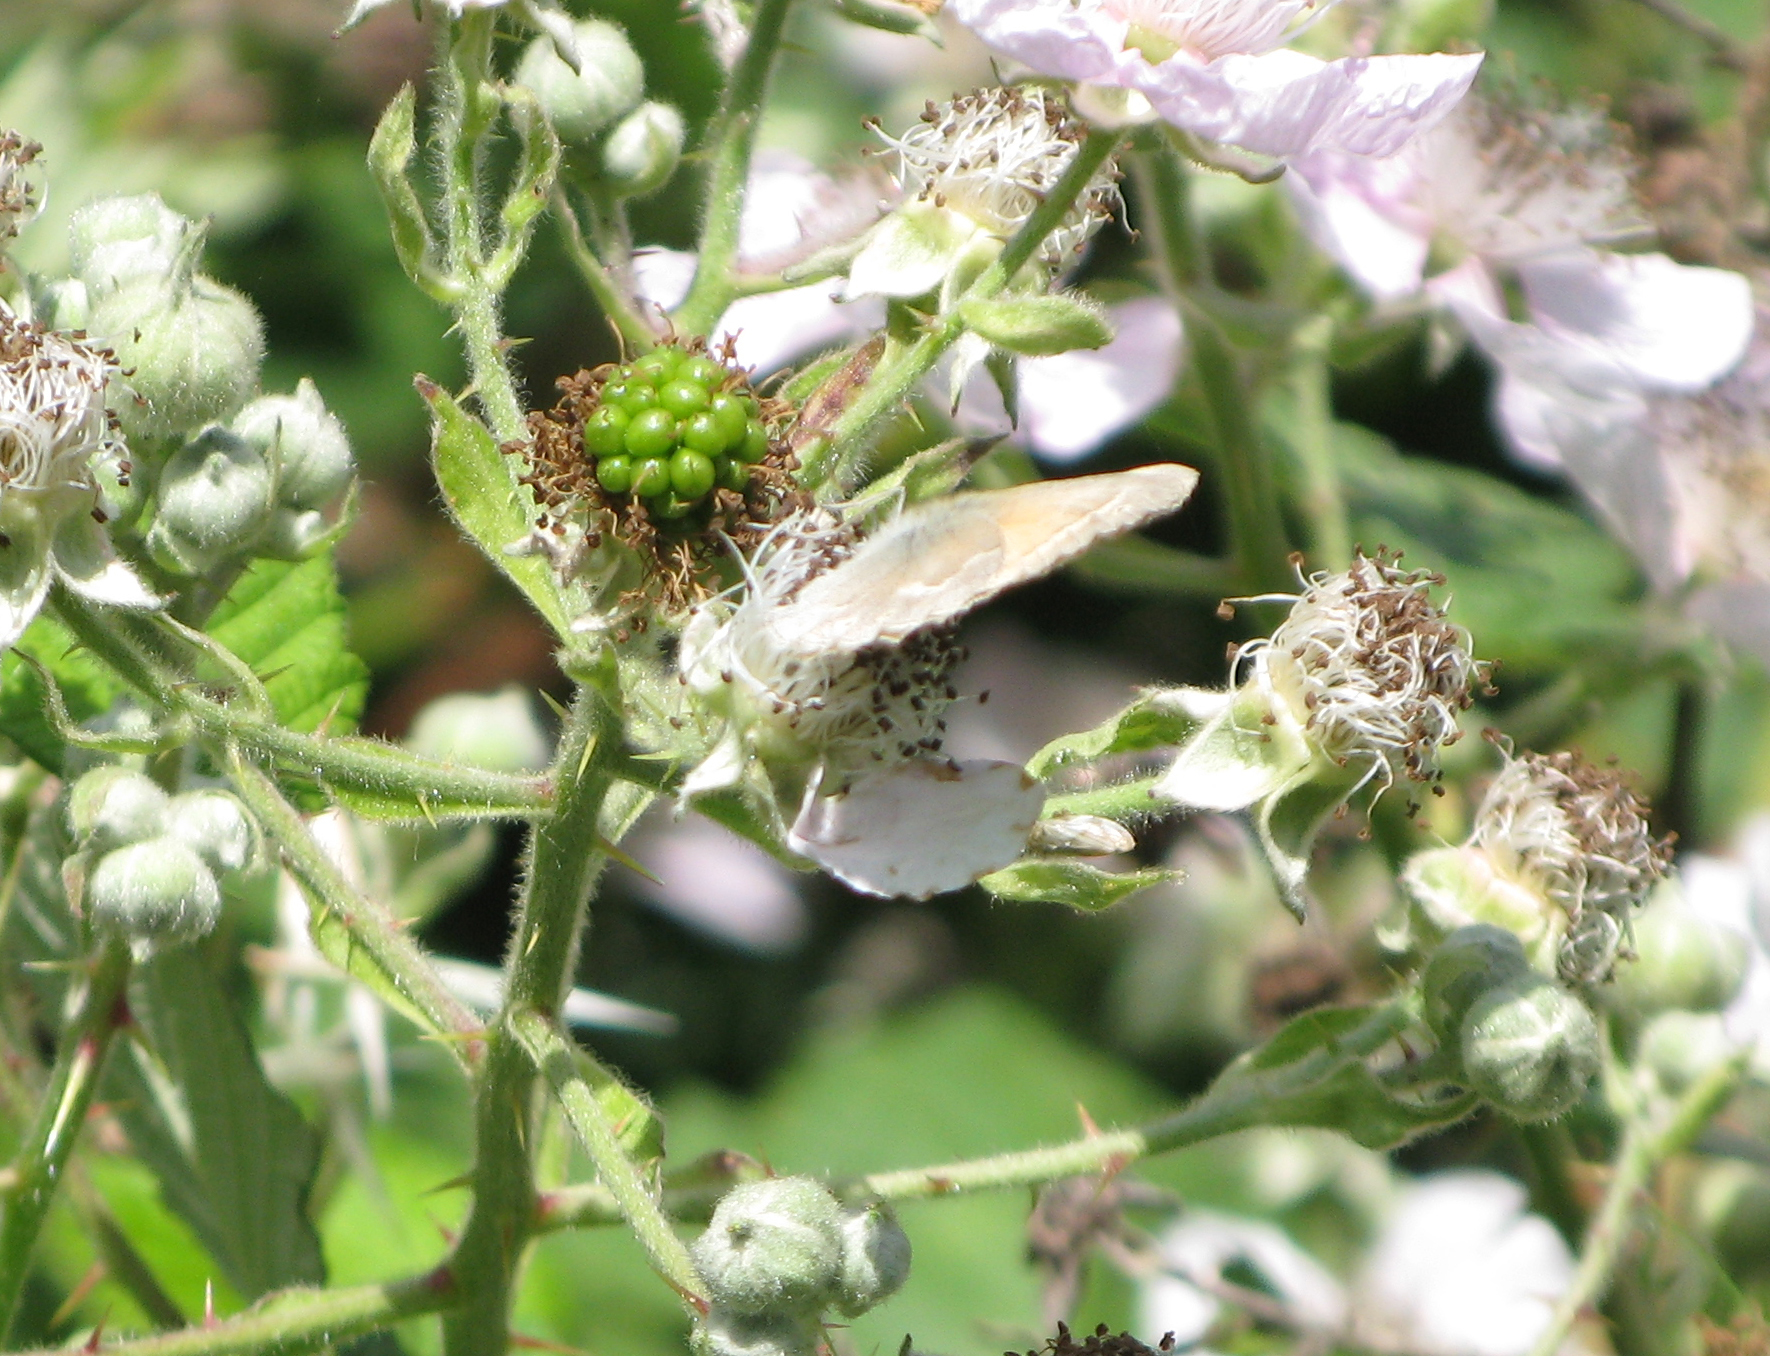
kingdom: Animalia
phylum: Arthropoda
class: Insecta
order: Lepidoptera
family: Nymphalidae
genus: Coenonympha
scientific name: Coenonympha california
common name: Common ringlet
